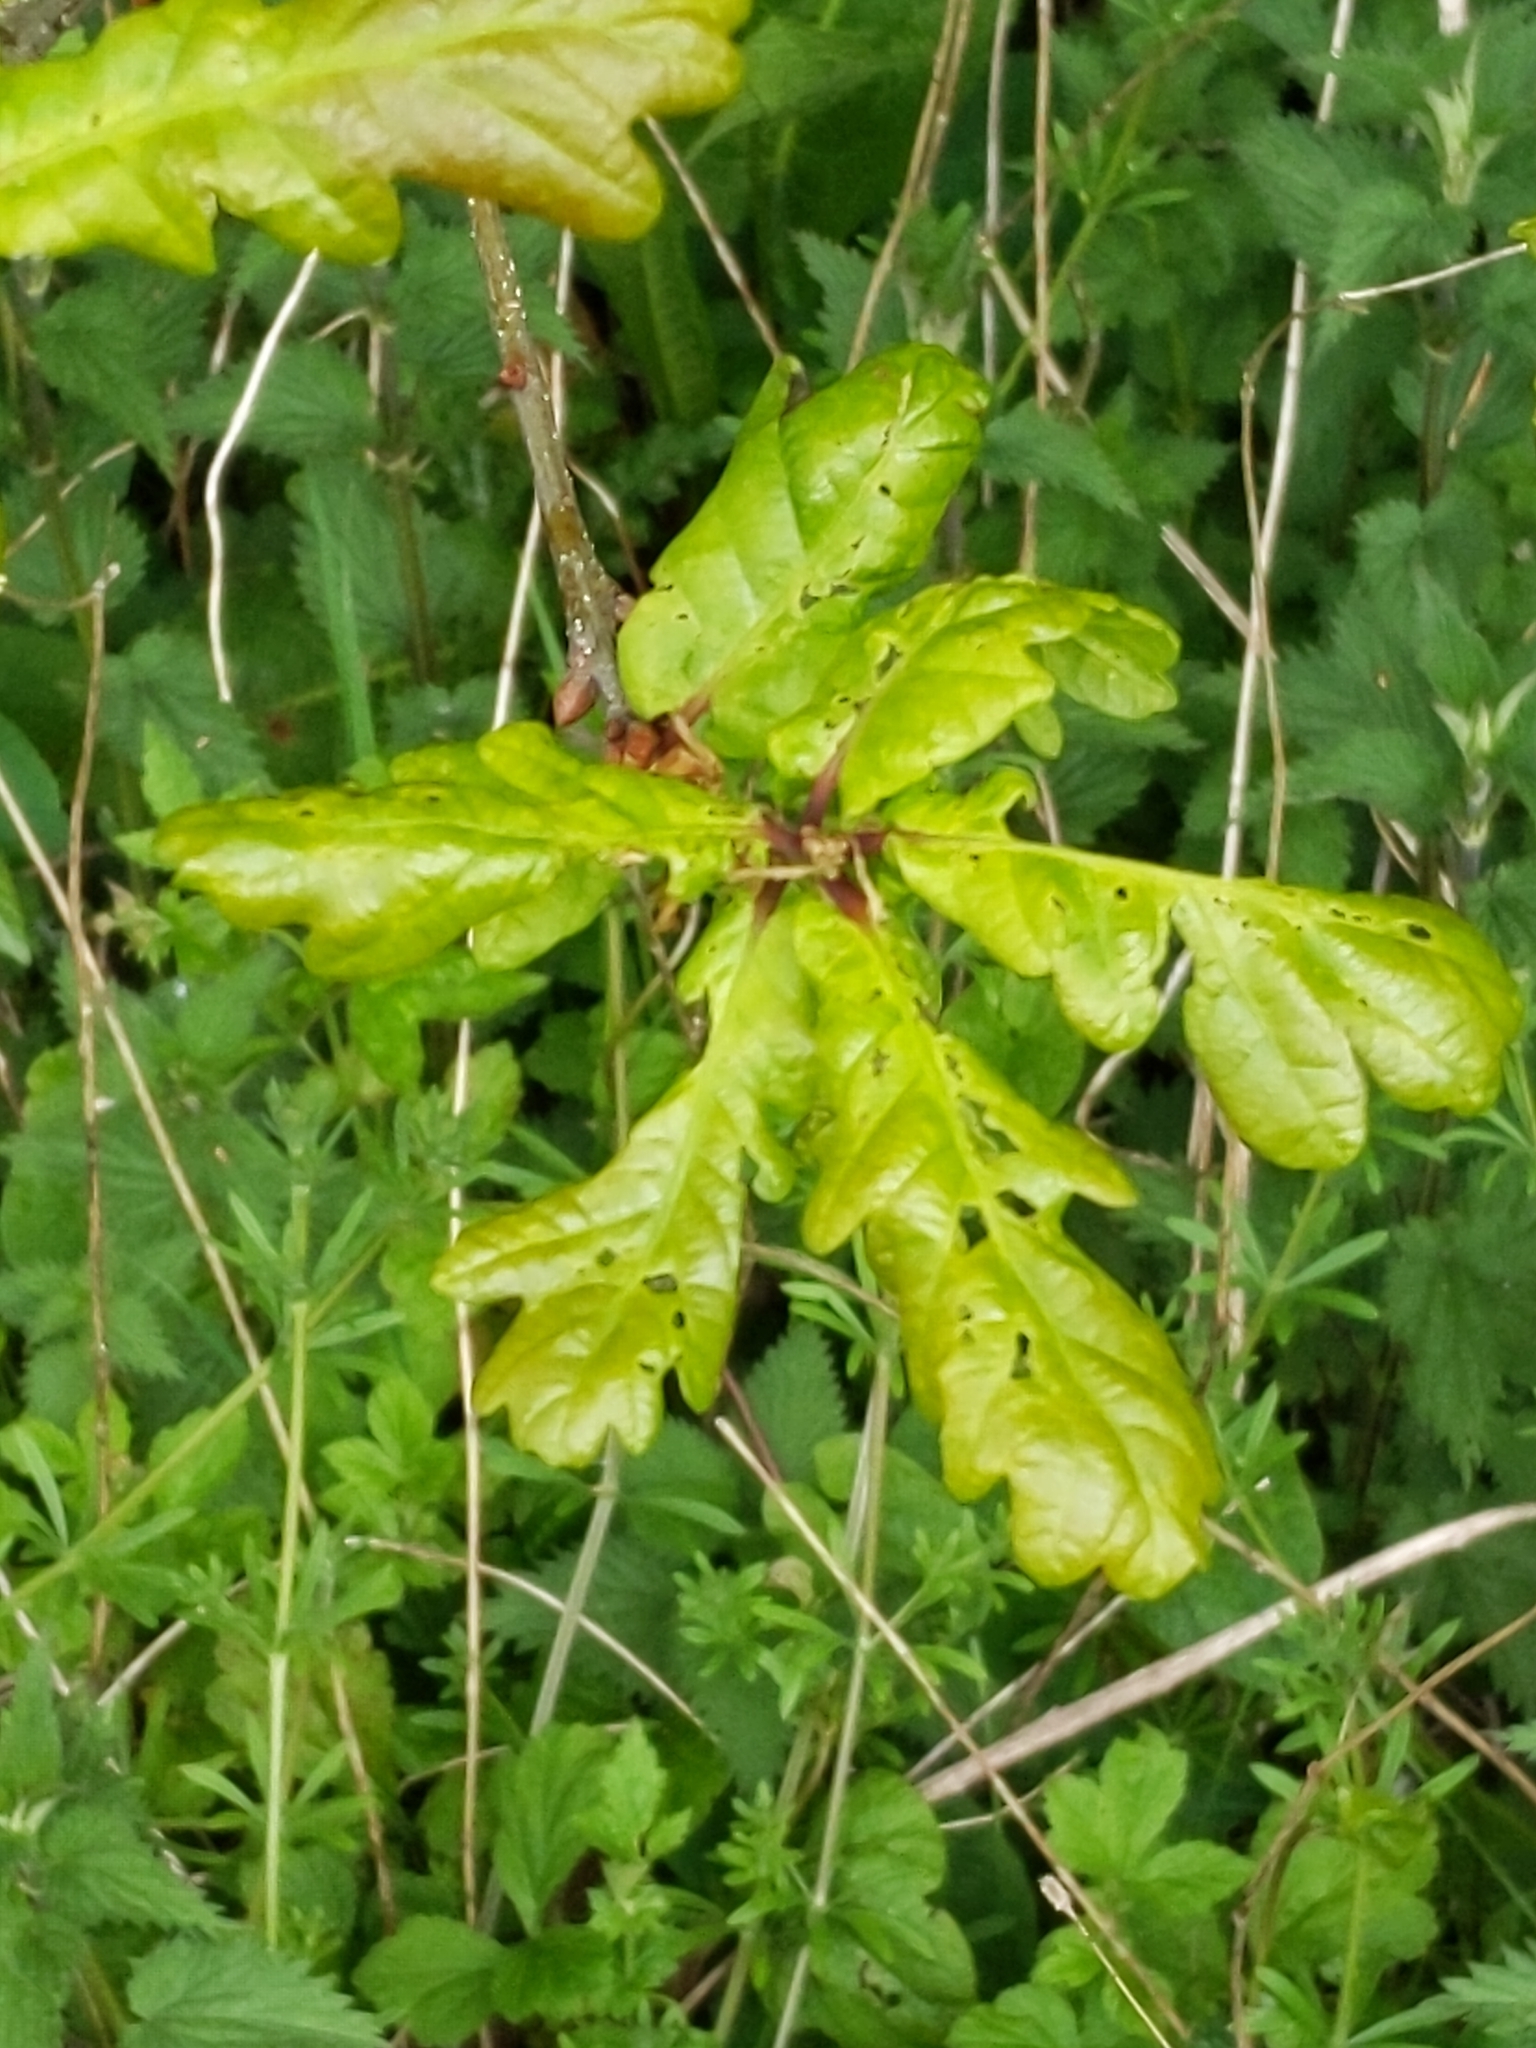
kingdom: Plantae
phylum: Tracheophyta
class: Magnoliopsida
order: Fagales
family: Fagaceae
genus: Quercus
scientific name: Quercus robur
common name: Pedunculate oak
